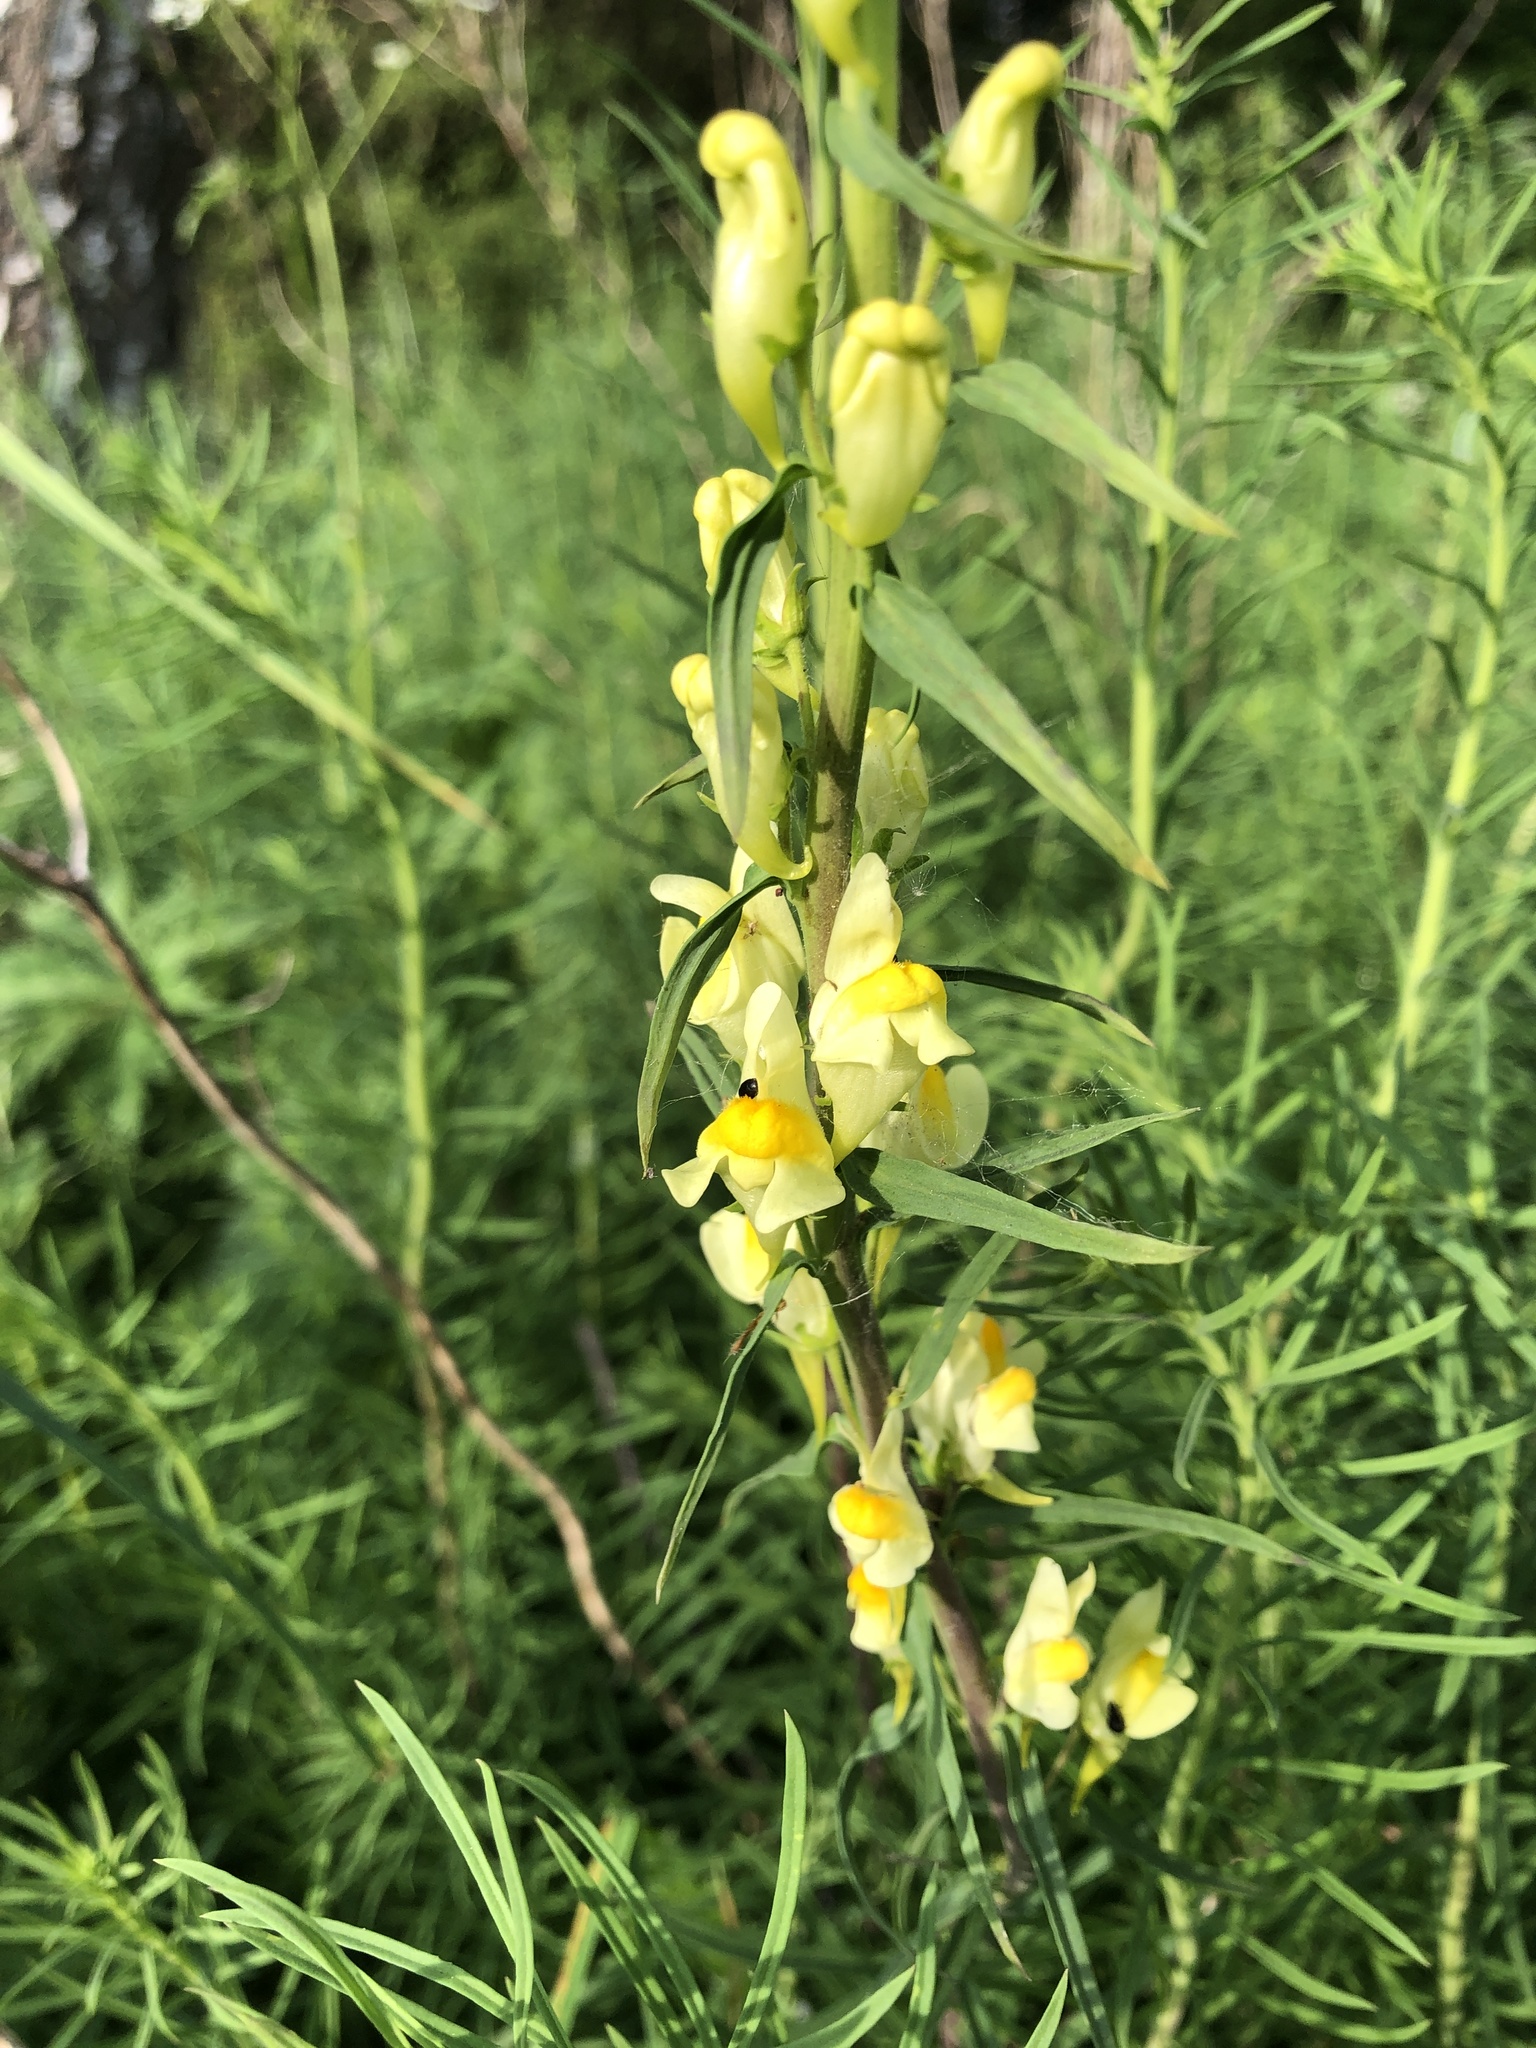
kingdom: Plantae
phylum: Tracheophyta
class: Magnoliopsida
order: Lamiales
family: Plantaginaceae
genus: Linaria
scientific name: Linaria vulgaris
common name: Butter and eggs
